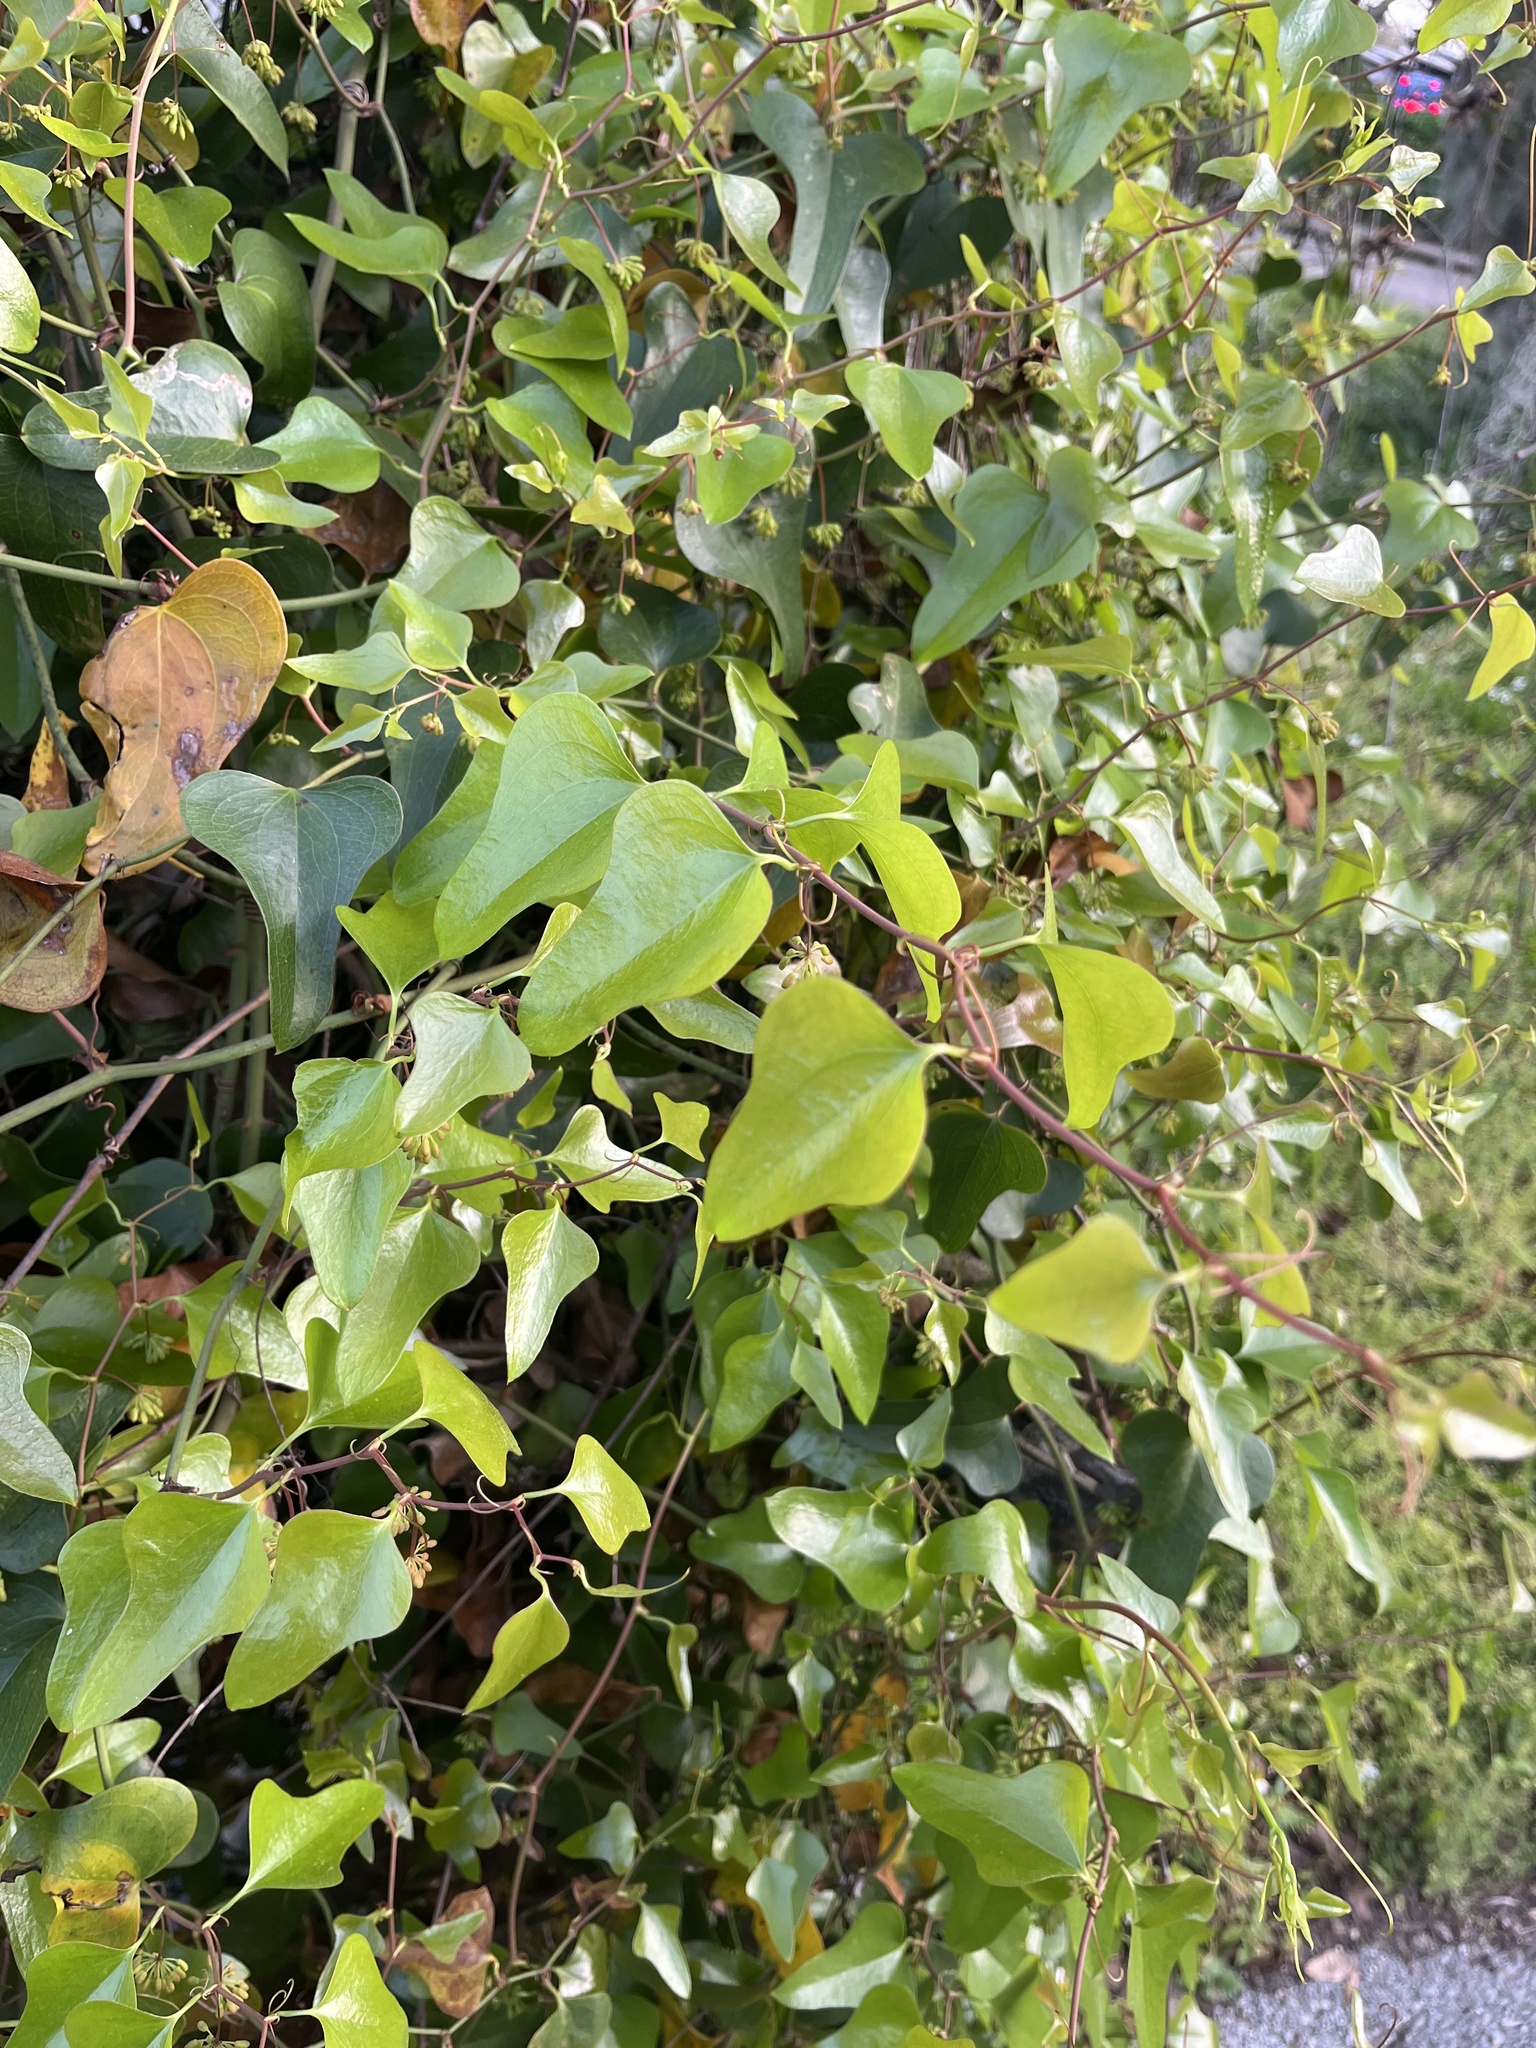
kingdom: Plantae
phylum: Tracheophyta
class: Liliopsida
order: Liliales
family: Smilacaceae
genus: Smilax
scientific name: Smilax bona-nox
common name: Catbrier
